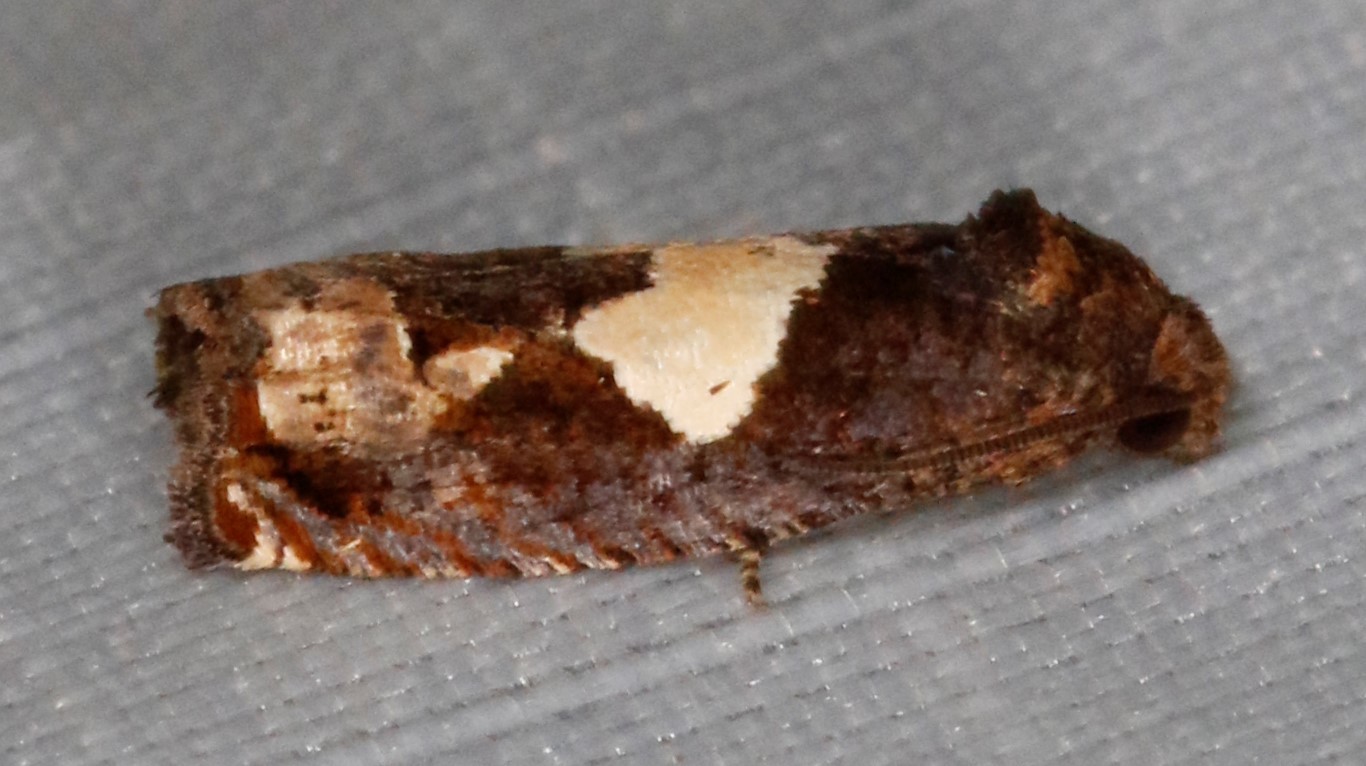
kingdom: Animalia
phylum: Arthropoda
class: Insecta
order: Lepidoptera
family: Tortricidae
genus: Epiblema
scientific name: Epiblema otiosana
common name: Bidens borer moth
